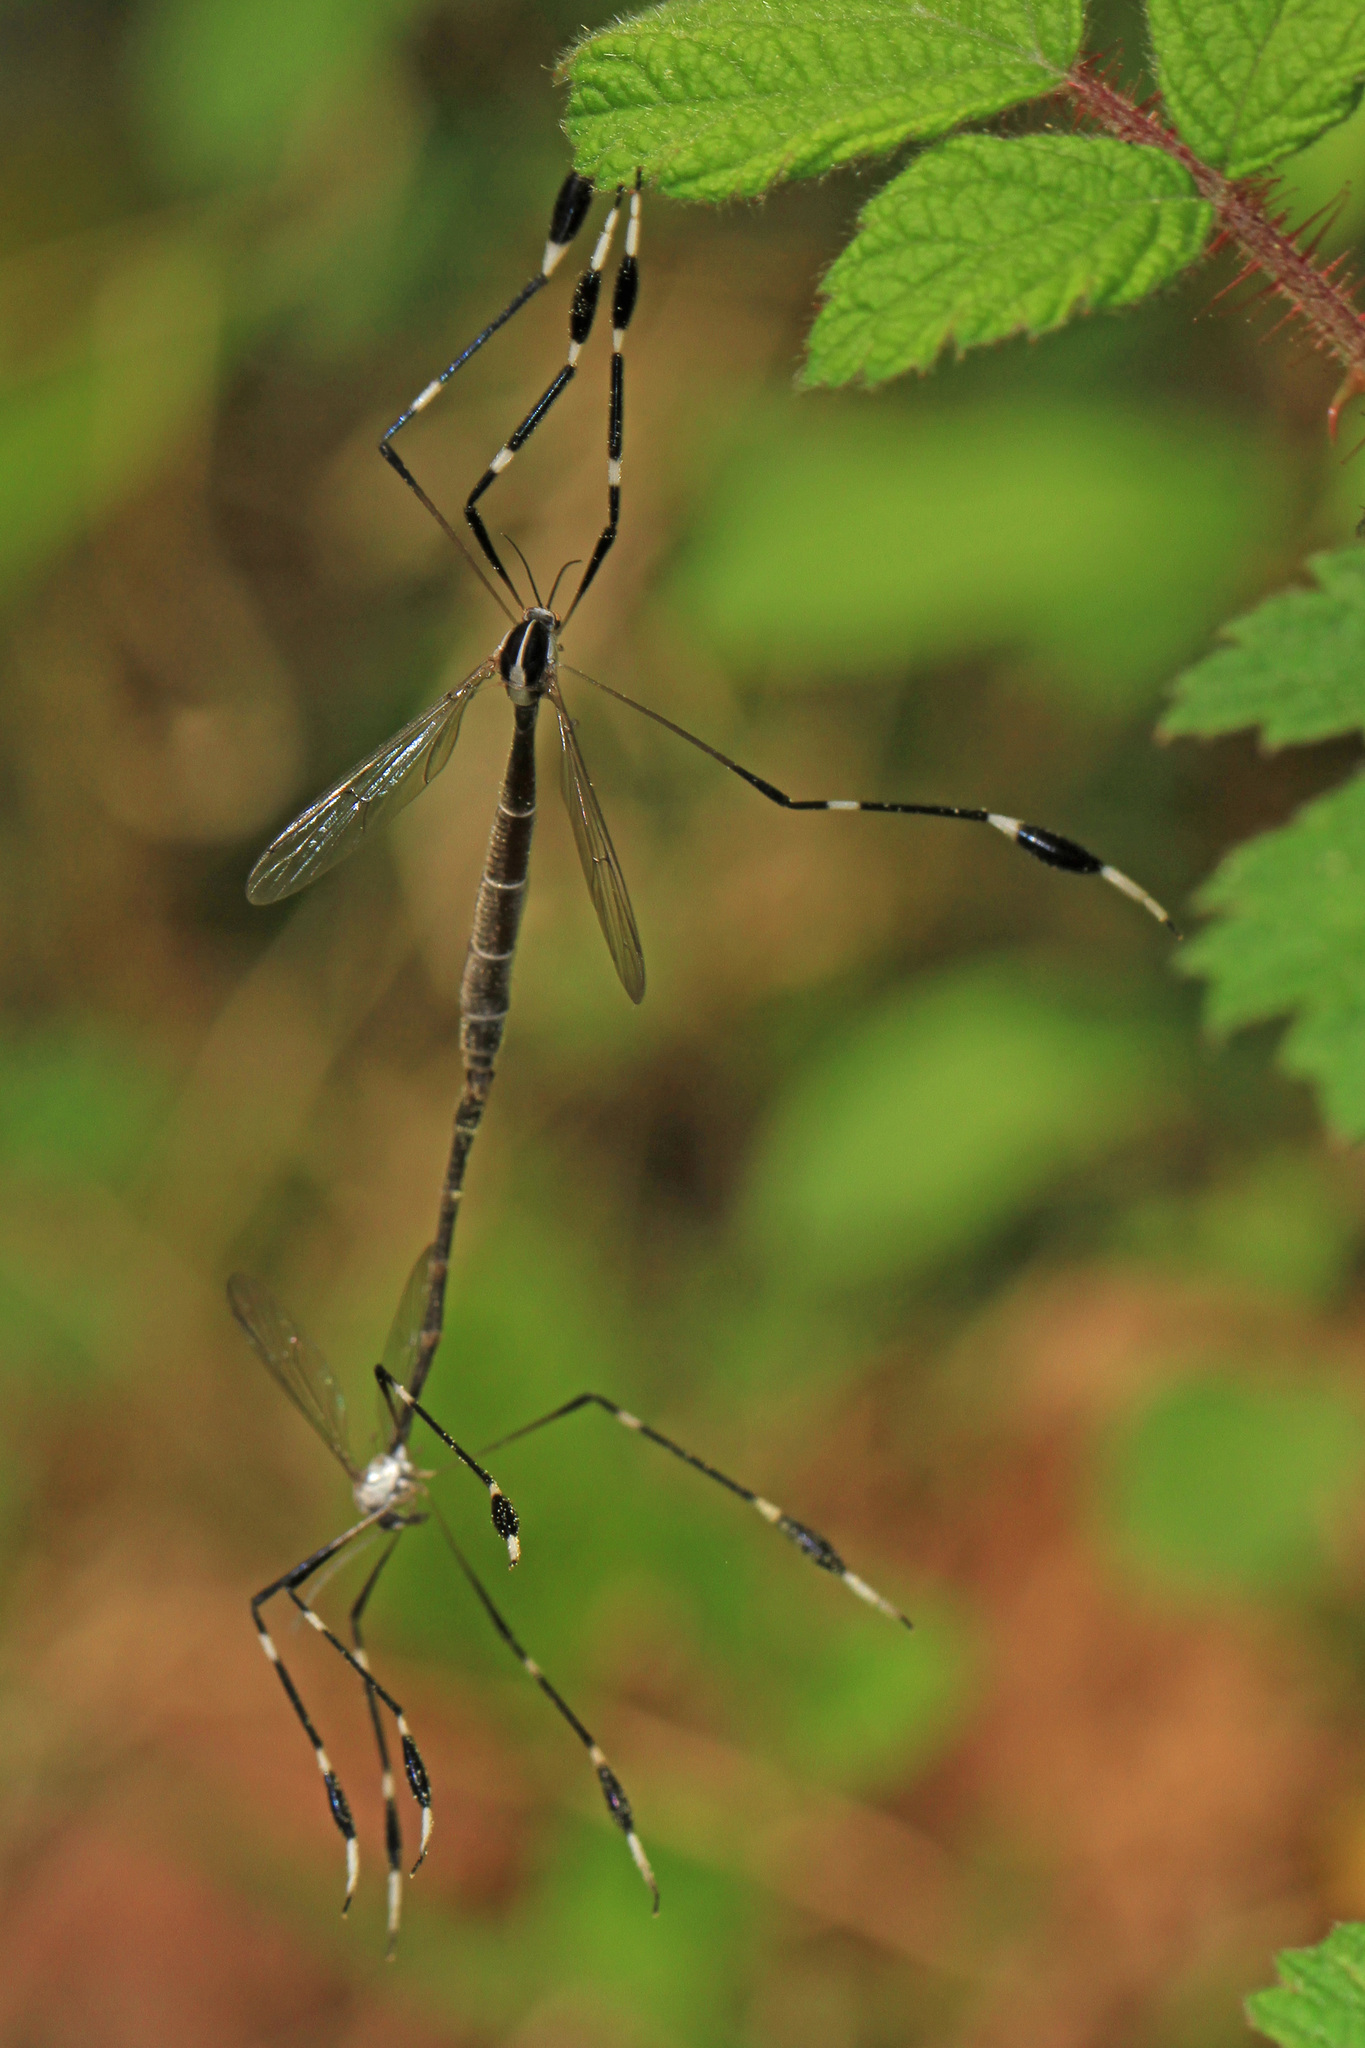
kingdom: Animalia
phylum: Arthropoda
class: Insecta
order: Diptera
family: Ptychopteridae
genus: Bittacomorpha
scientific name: Bittacomorpha clavipes
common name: Eastern phantom crane fly
